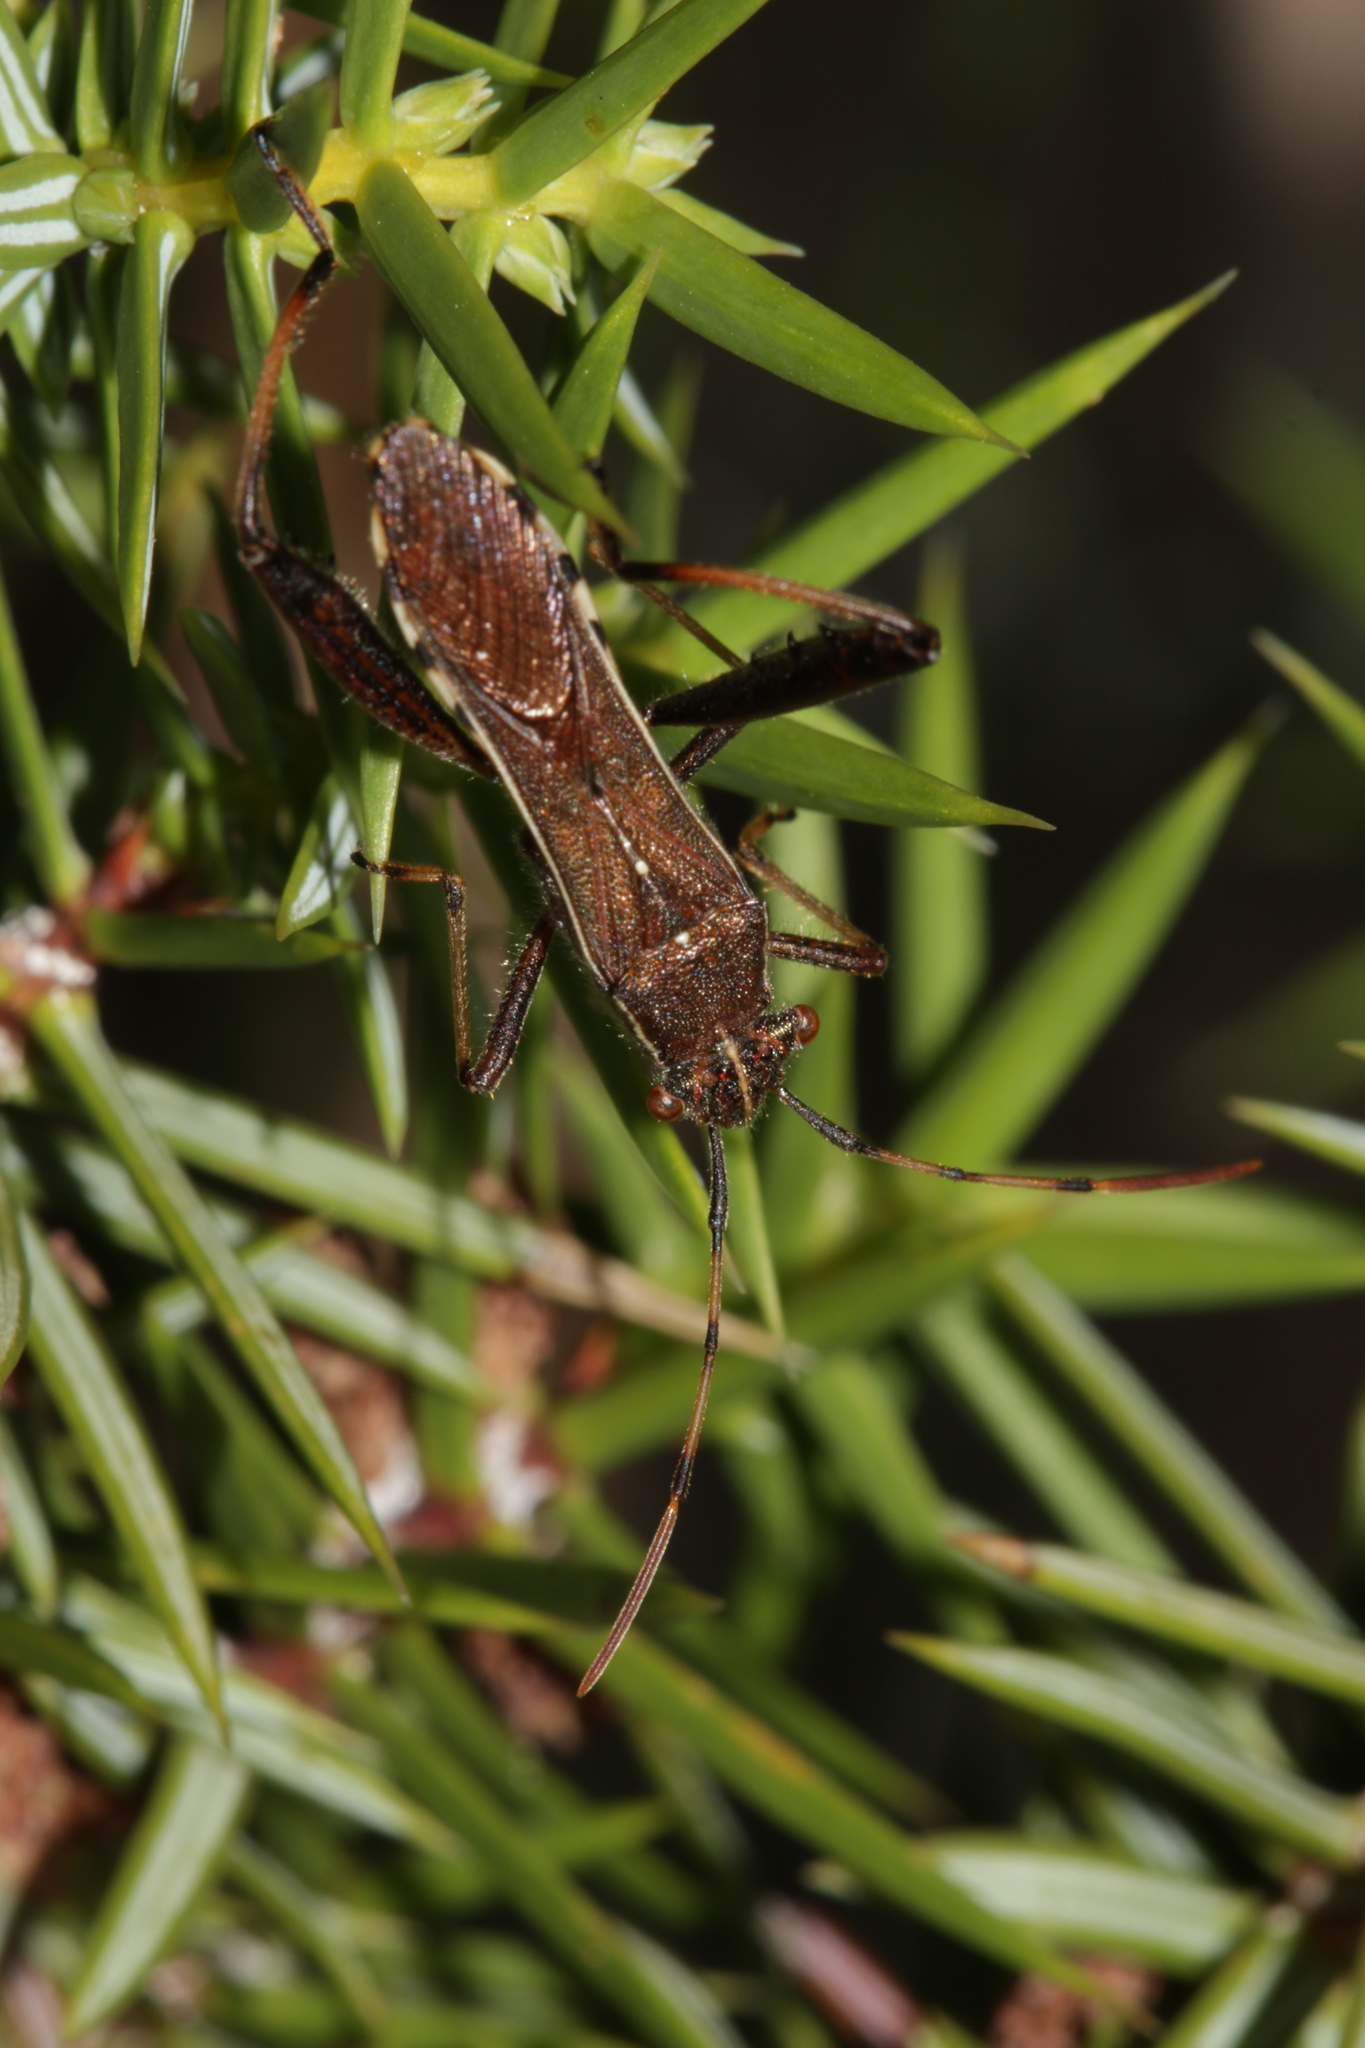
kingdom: Animalia
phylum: Arthropoda
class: Insecta
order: Hemiptera
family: Alydidae
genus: Camptopus
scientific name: Camptopus lateralis
